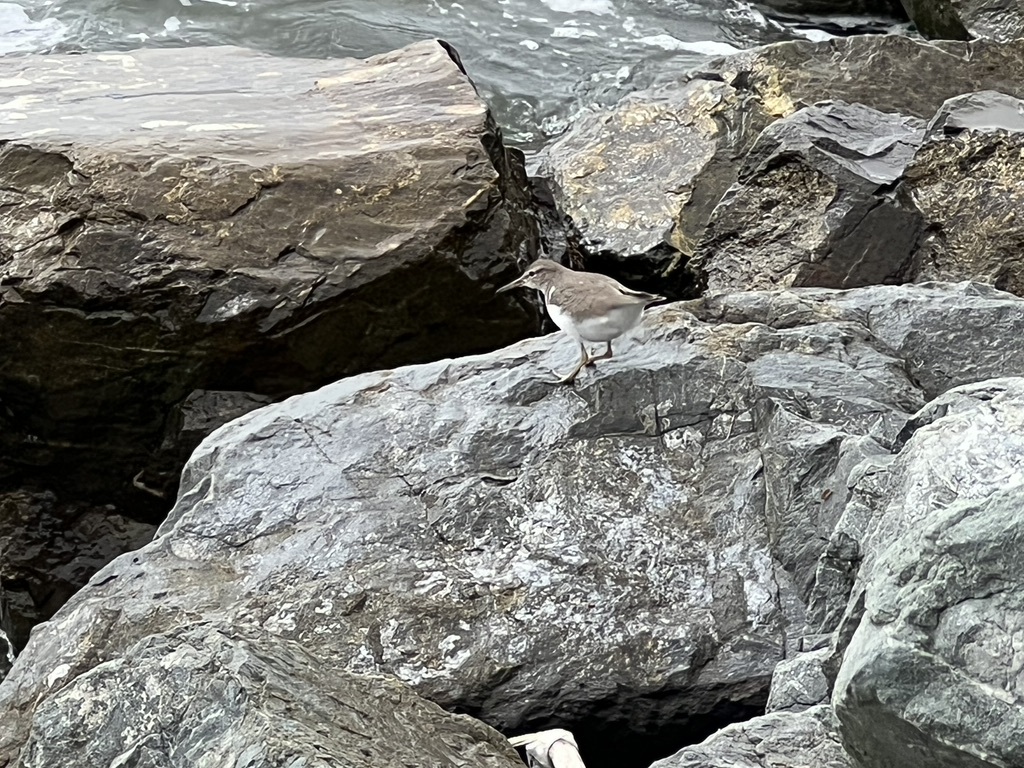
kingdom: Animalia
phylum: Chordata
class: Aves
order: Charadriiformes
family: Scolopacidae
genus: Actitis
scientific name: Actitis macularius
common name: Spotted sandpiper
